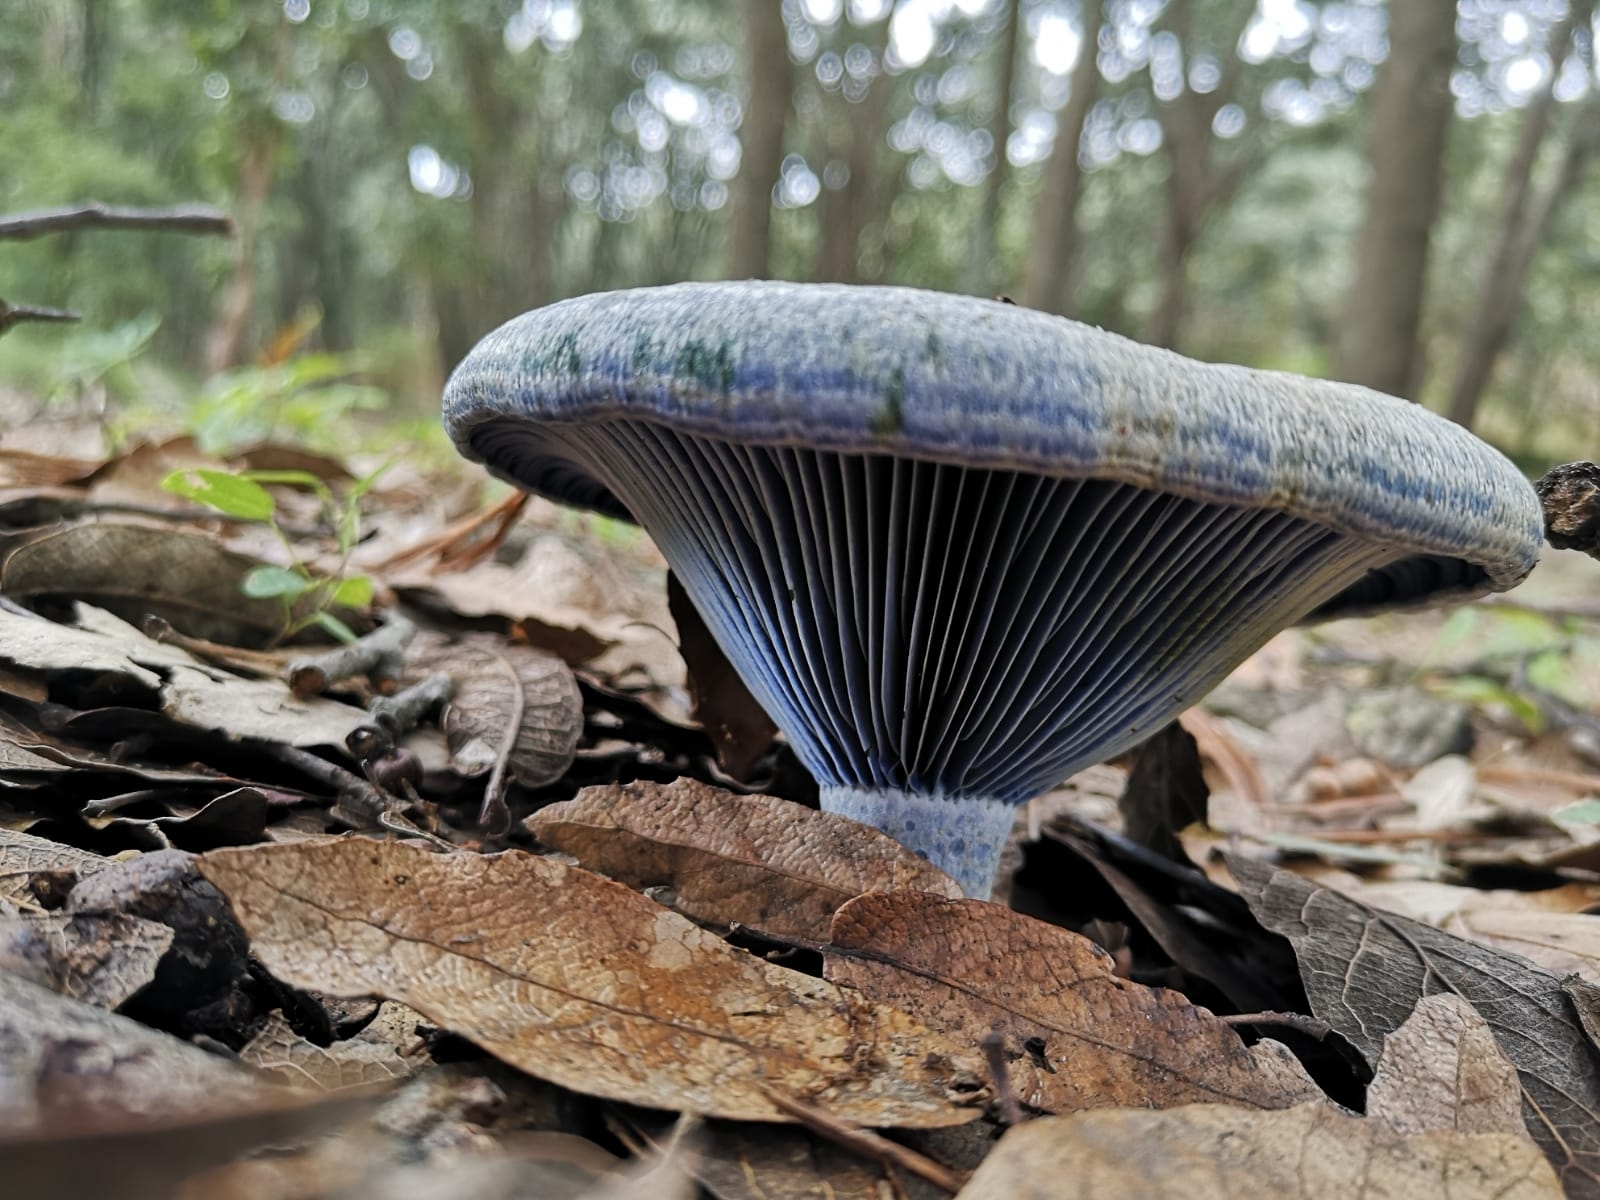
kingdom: Fungi
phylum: Basidiomycota
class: Agaricomycetes
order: Russulales
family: Russulaceae
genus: Lactarius
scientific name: Lactarius indigo
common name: Indigo milk cap
